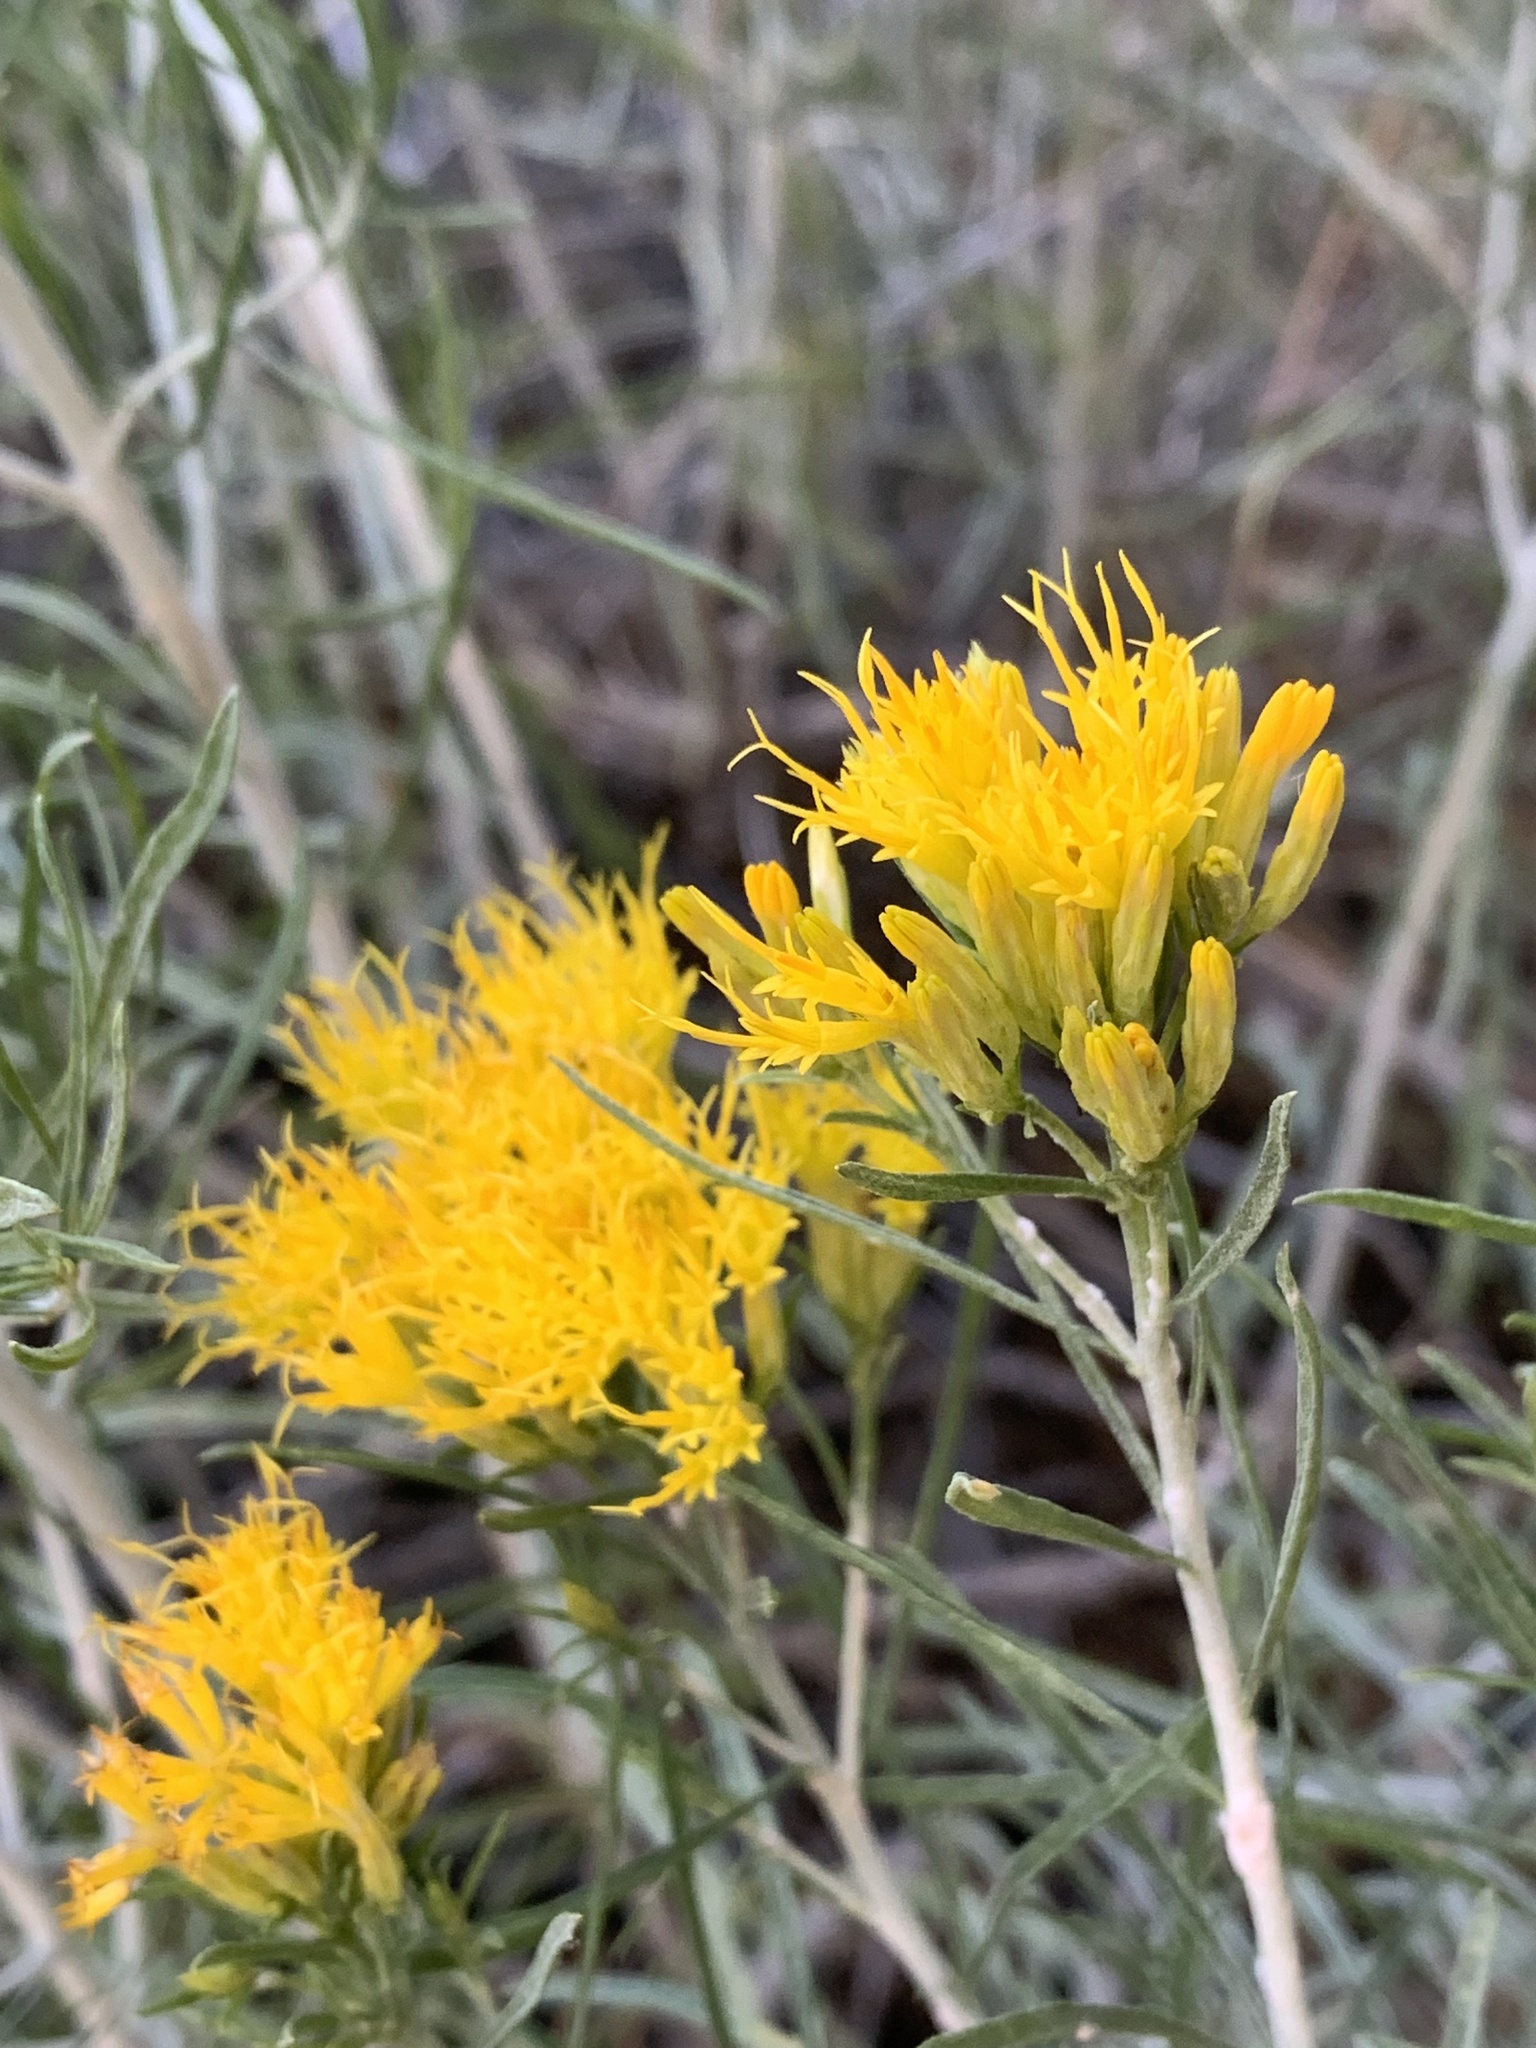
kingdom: Plantae
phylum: Tracheophyta
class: Magnoliopsida
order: Asterales
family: Asteraceae
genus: Ericameria
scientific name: Ericameria nauseosa
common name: Rubber rabbitbrush
